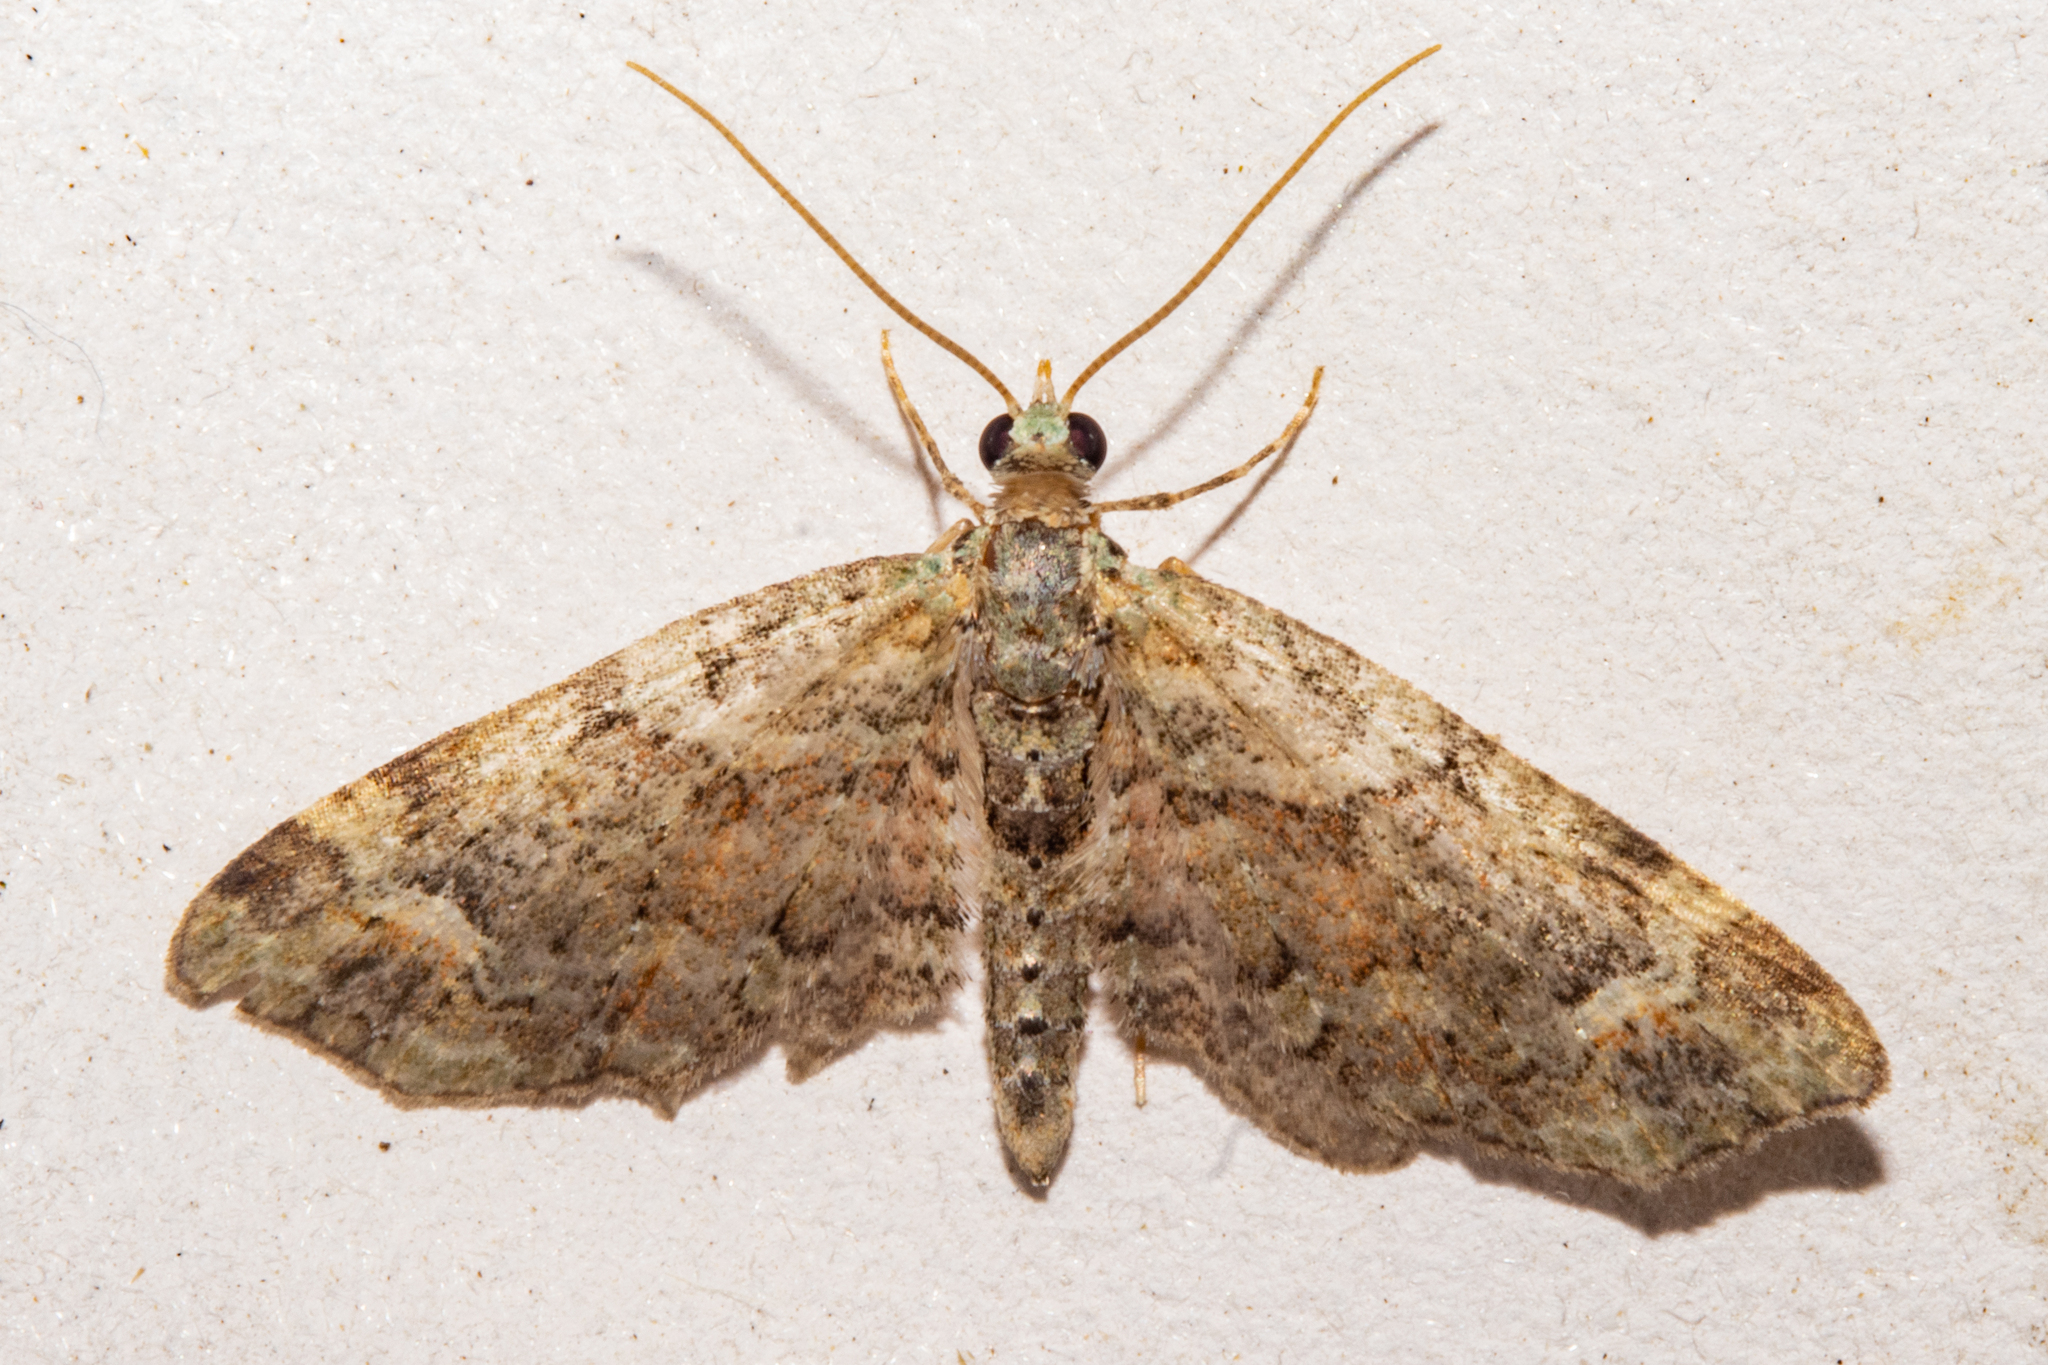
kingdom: Animalia
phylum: Arthropoda
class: Insecta
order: Lepidoptera
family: Geometridae
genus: Idaea
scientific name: Idaea mutanda
